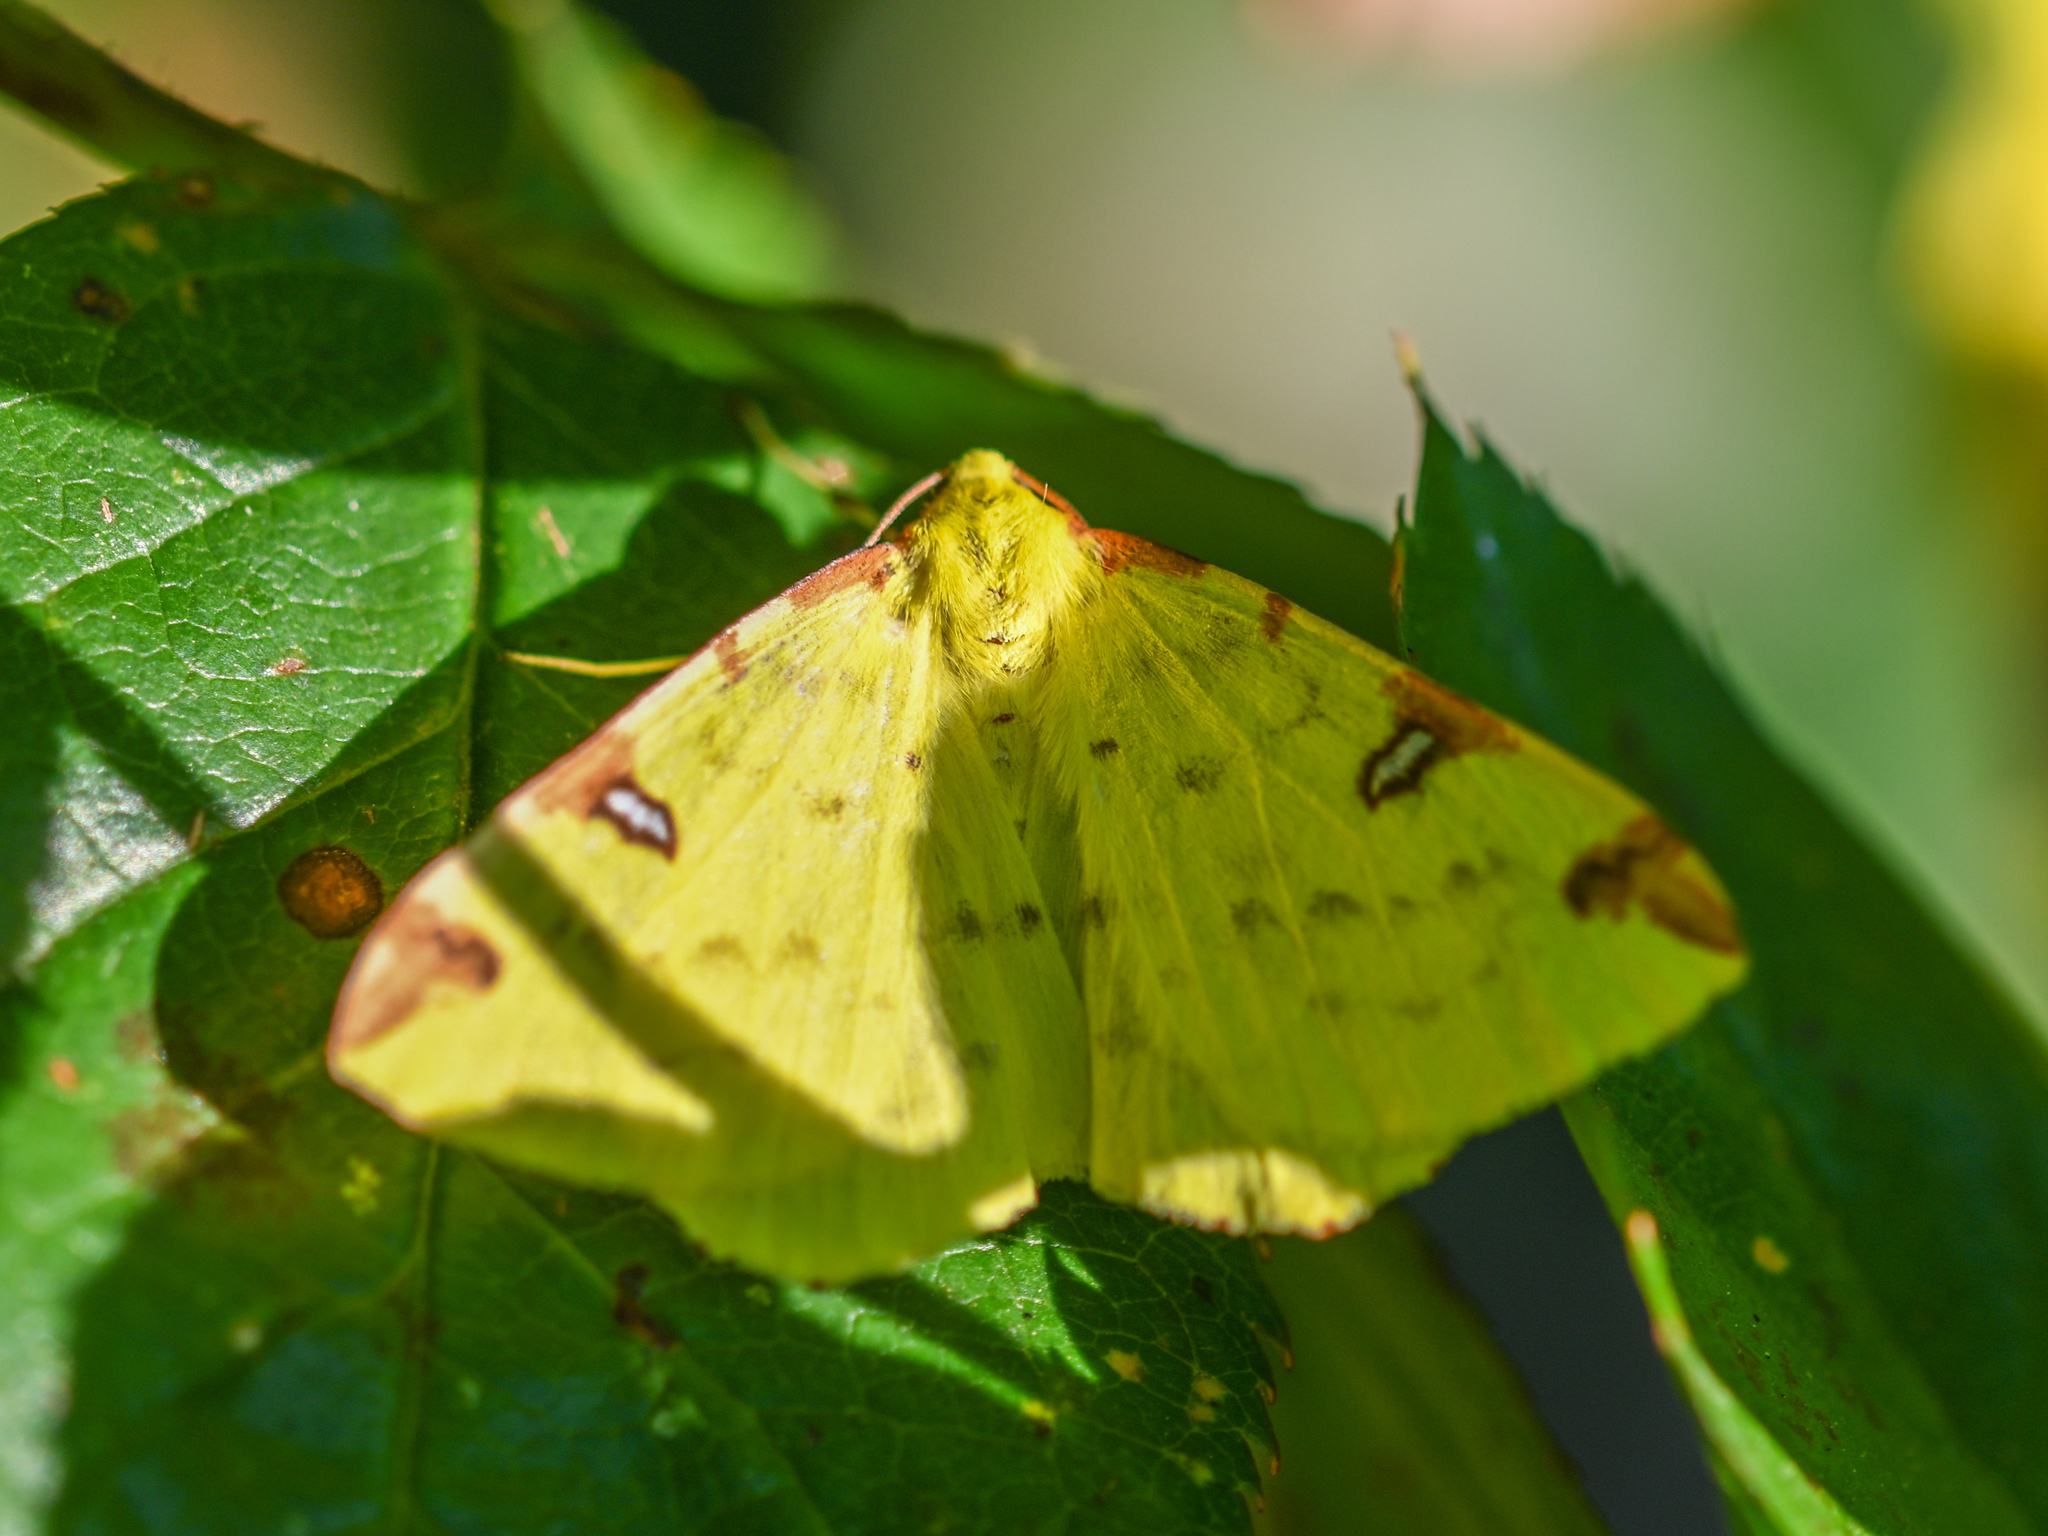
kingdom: Animalia
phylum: Arthropoda
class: Insecta
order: Lepidoptera
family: Geometridae
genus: Opisthograptis
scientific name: Opisthograptis luteolata
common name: Brimstone moth
